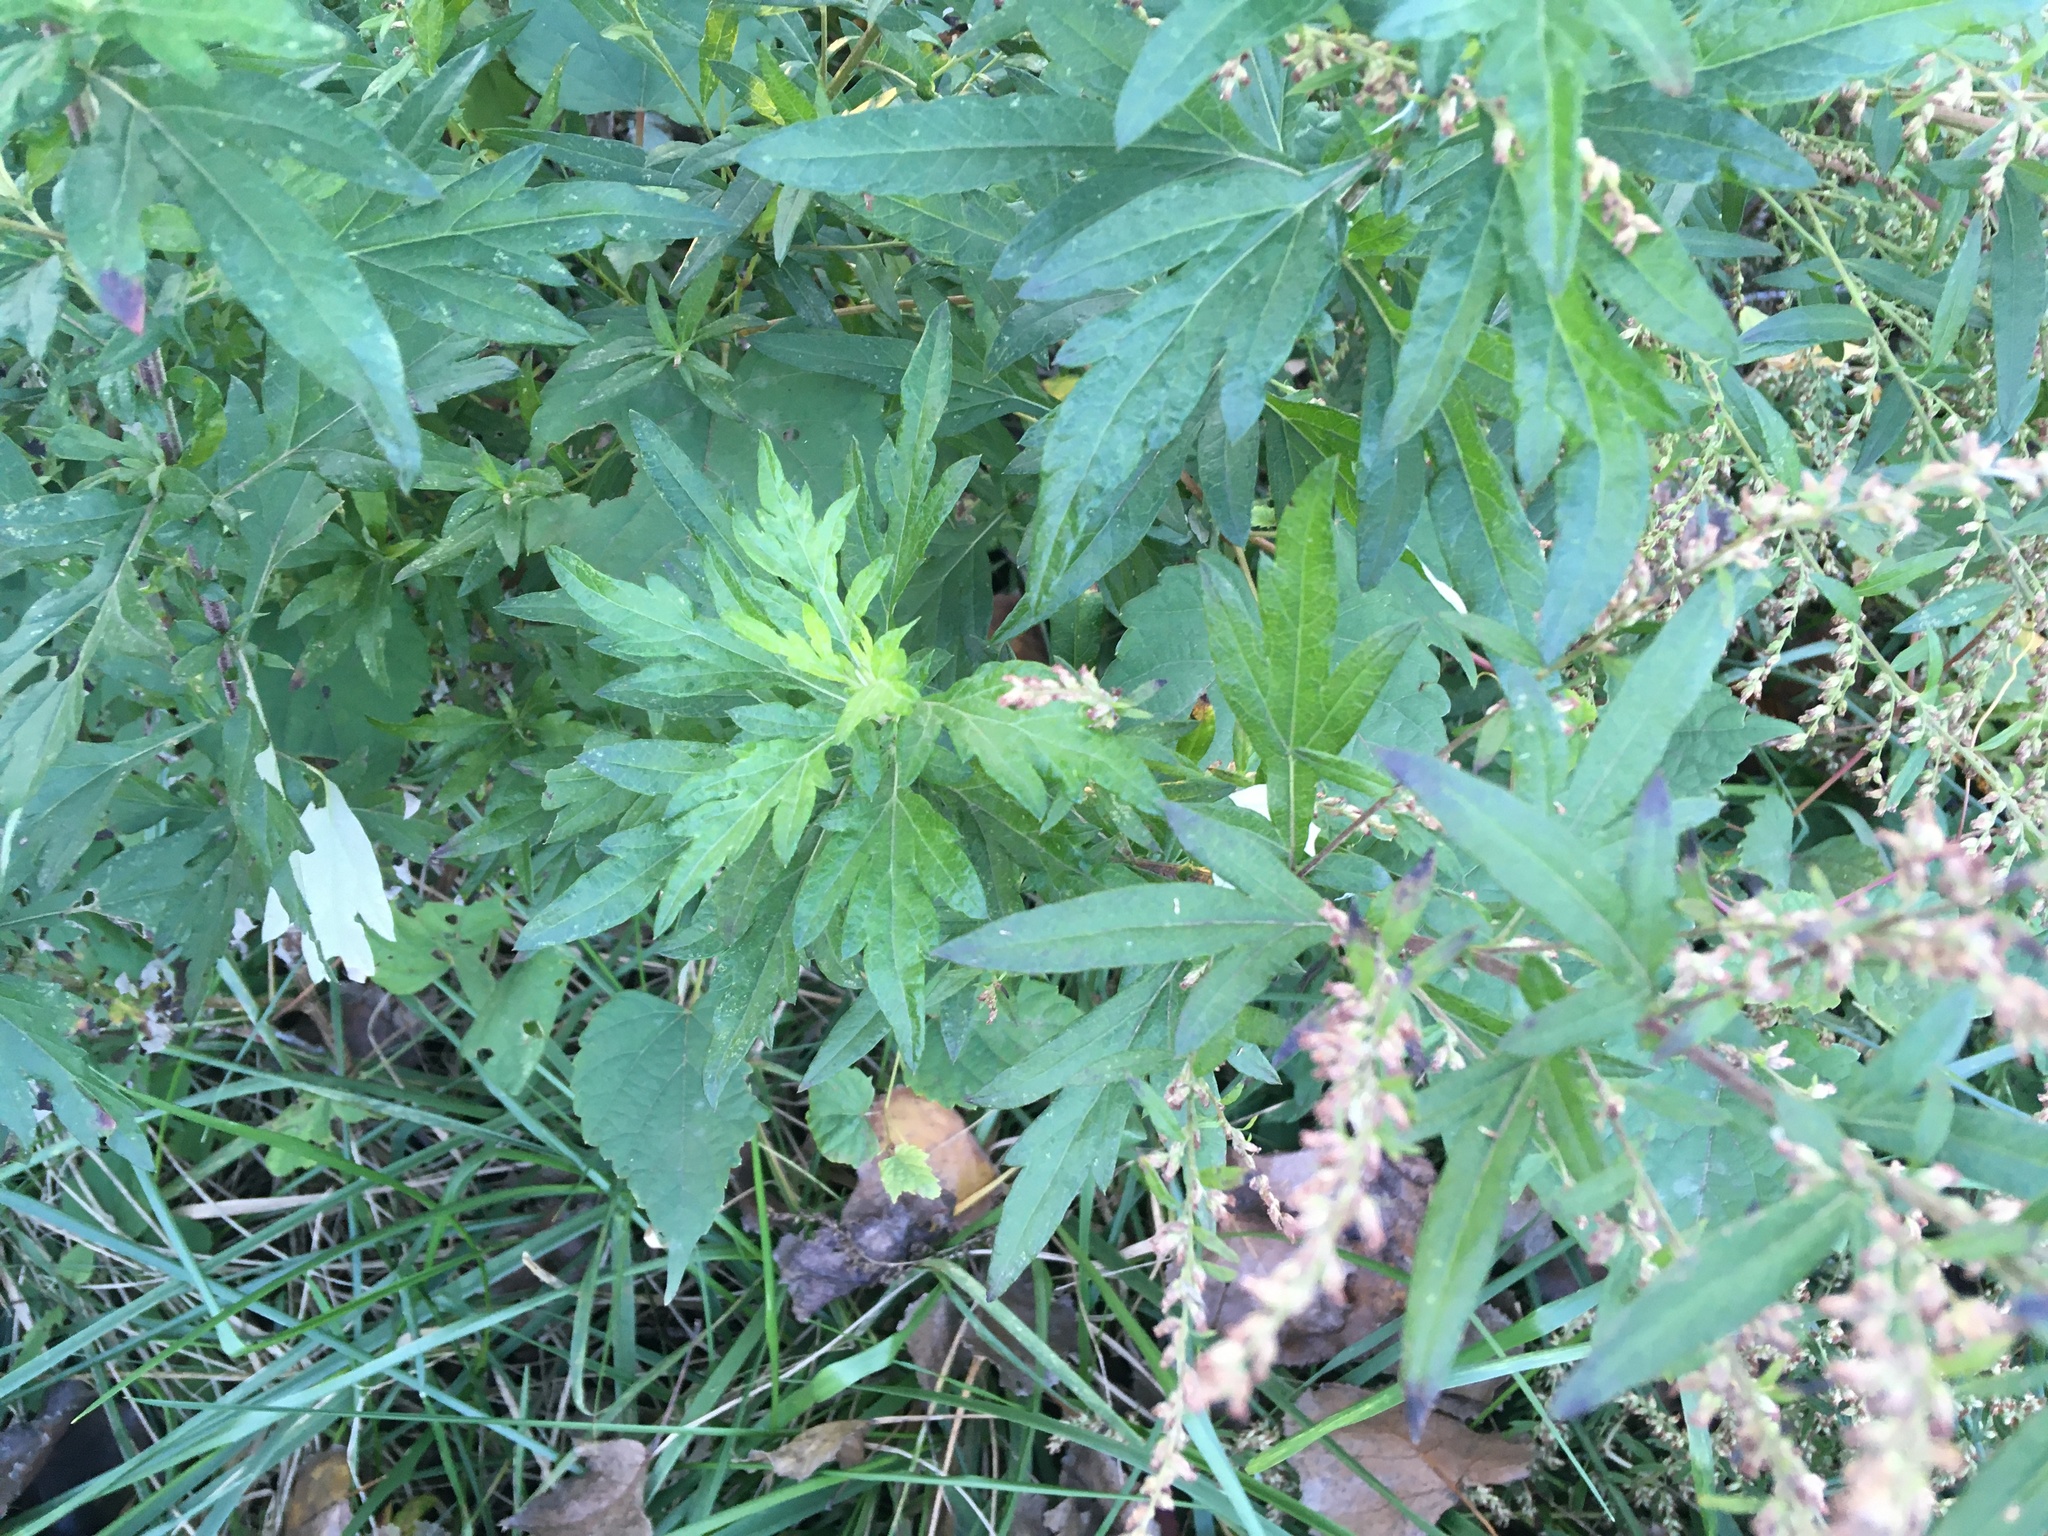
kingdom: Plantae
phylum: Tracheophyta
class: Magnoliopsida
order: Asterales
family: Asteraceae
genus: Artemisia
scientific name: Artemisia vulgaris
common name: Mugwort
